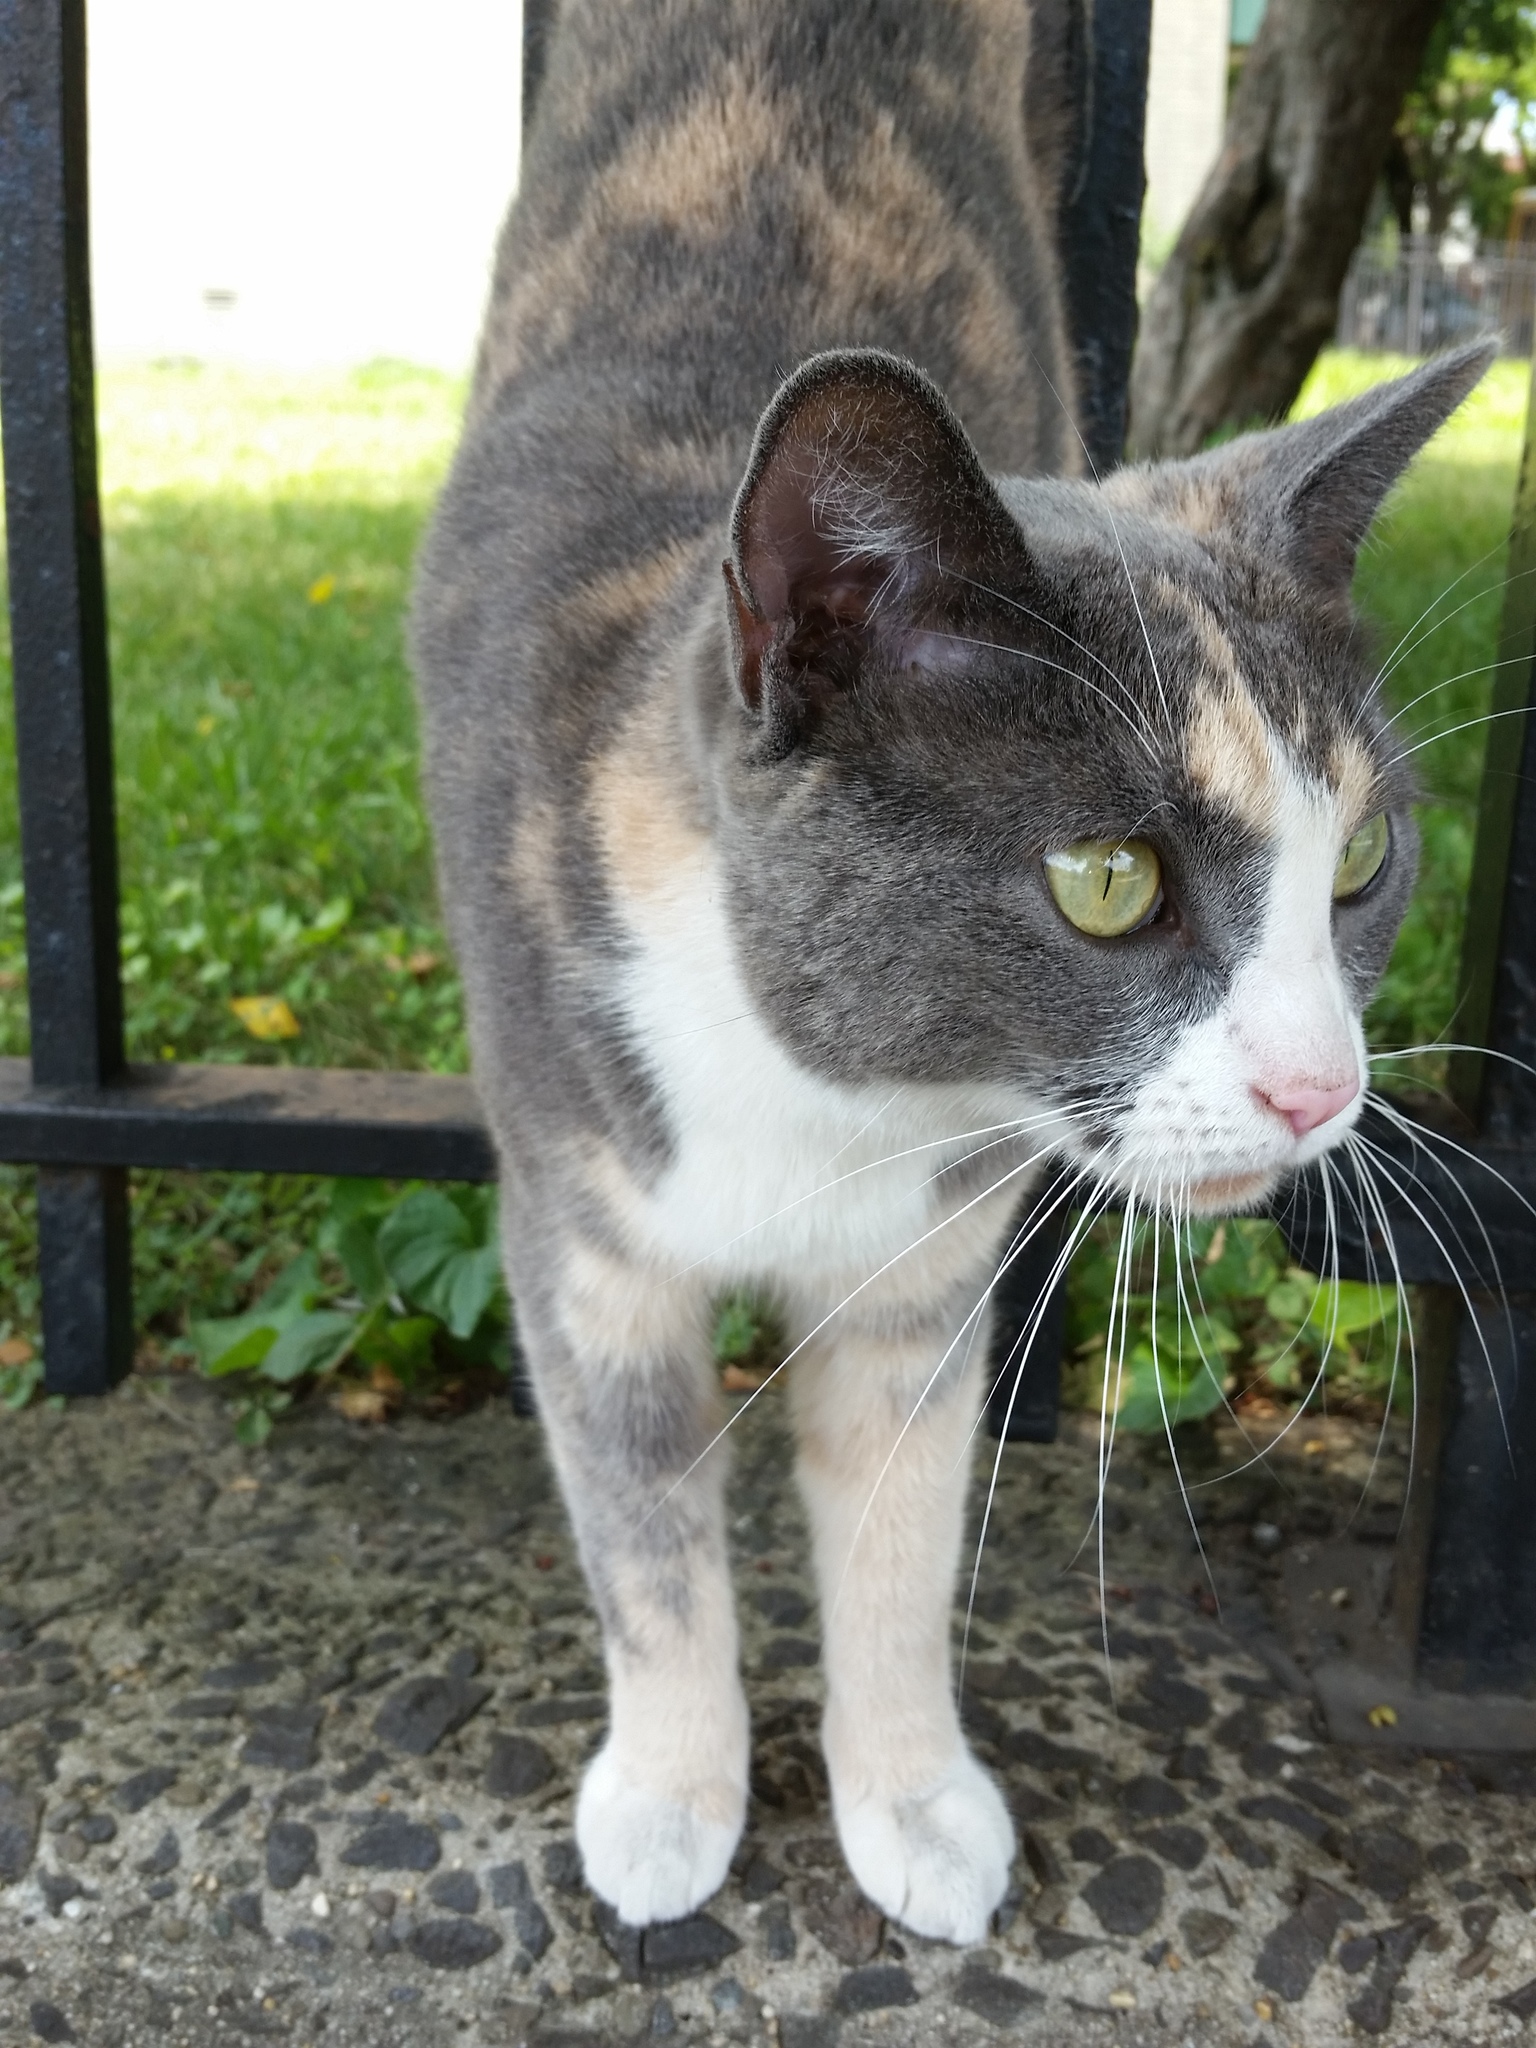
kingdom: Animalia
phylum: Chordata
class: Mammalia
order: Carnivora
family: Felidae
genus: Felis
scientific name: Felis catus
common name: Domestic cat
